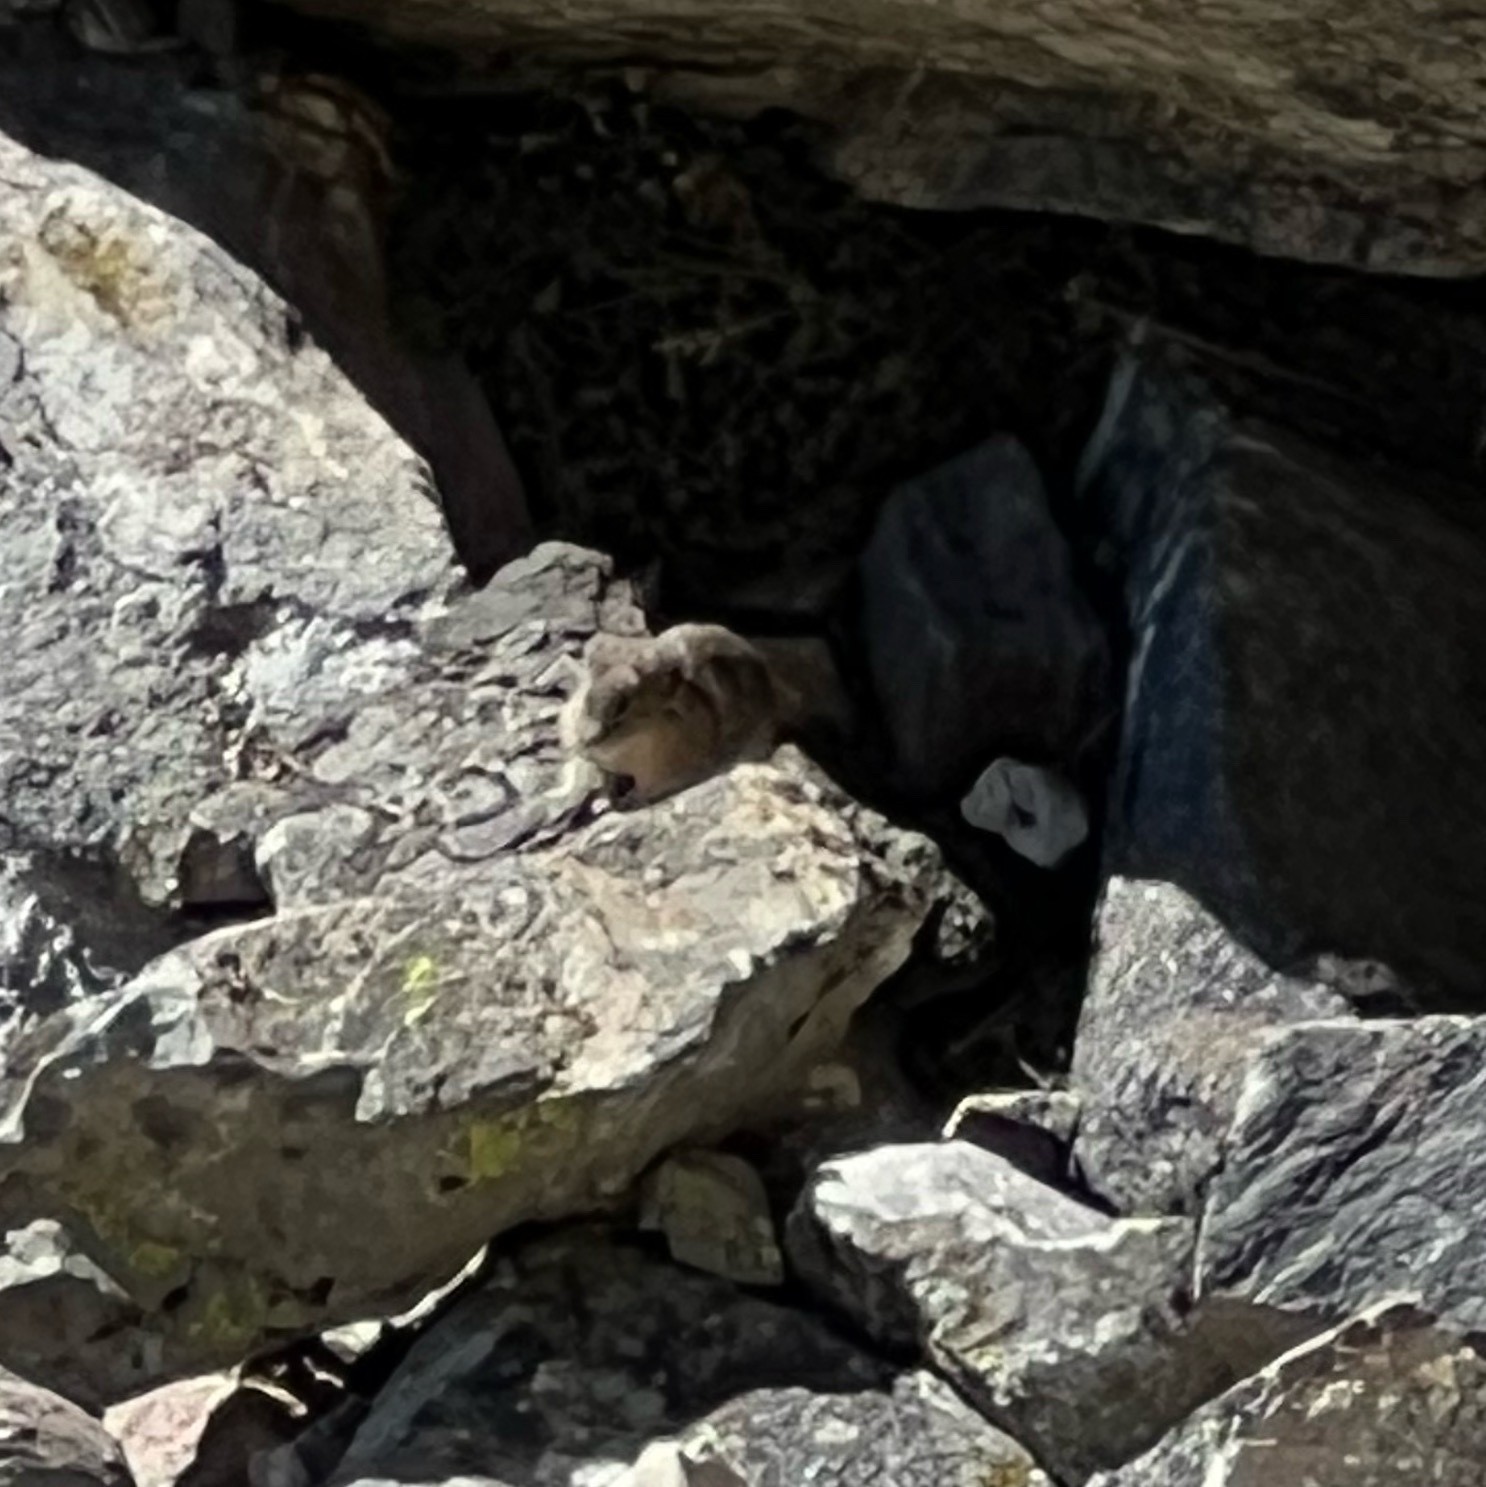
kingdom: Animalia
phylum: Chordata
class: Mammalia
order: Lagomorpha
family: Ochotonidae
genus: Ochotona
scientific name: Ochotona princeps
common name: American pika
